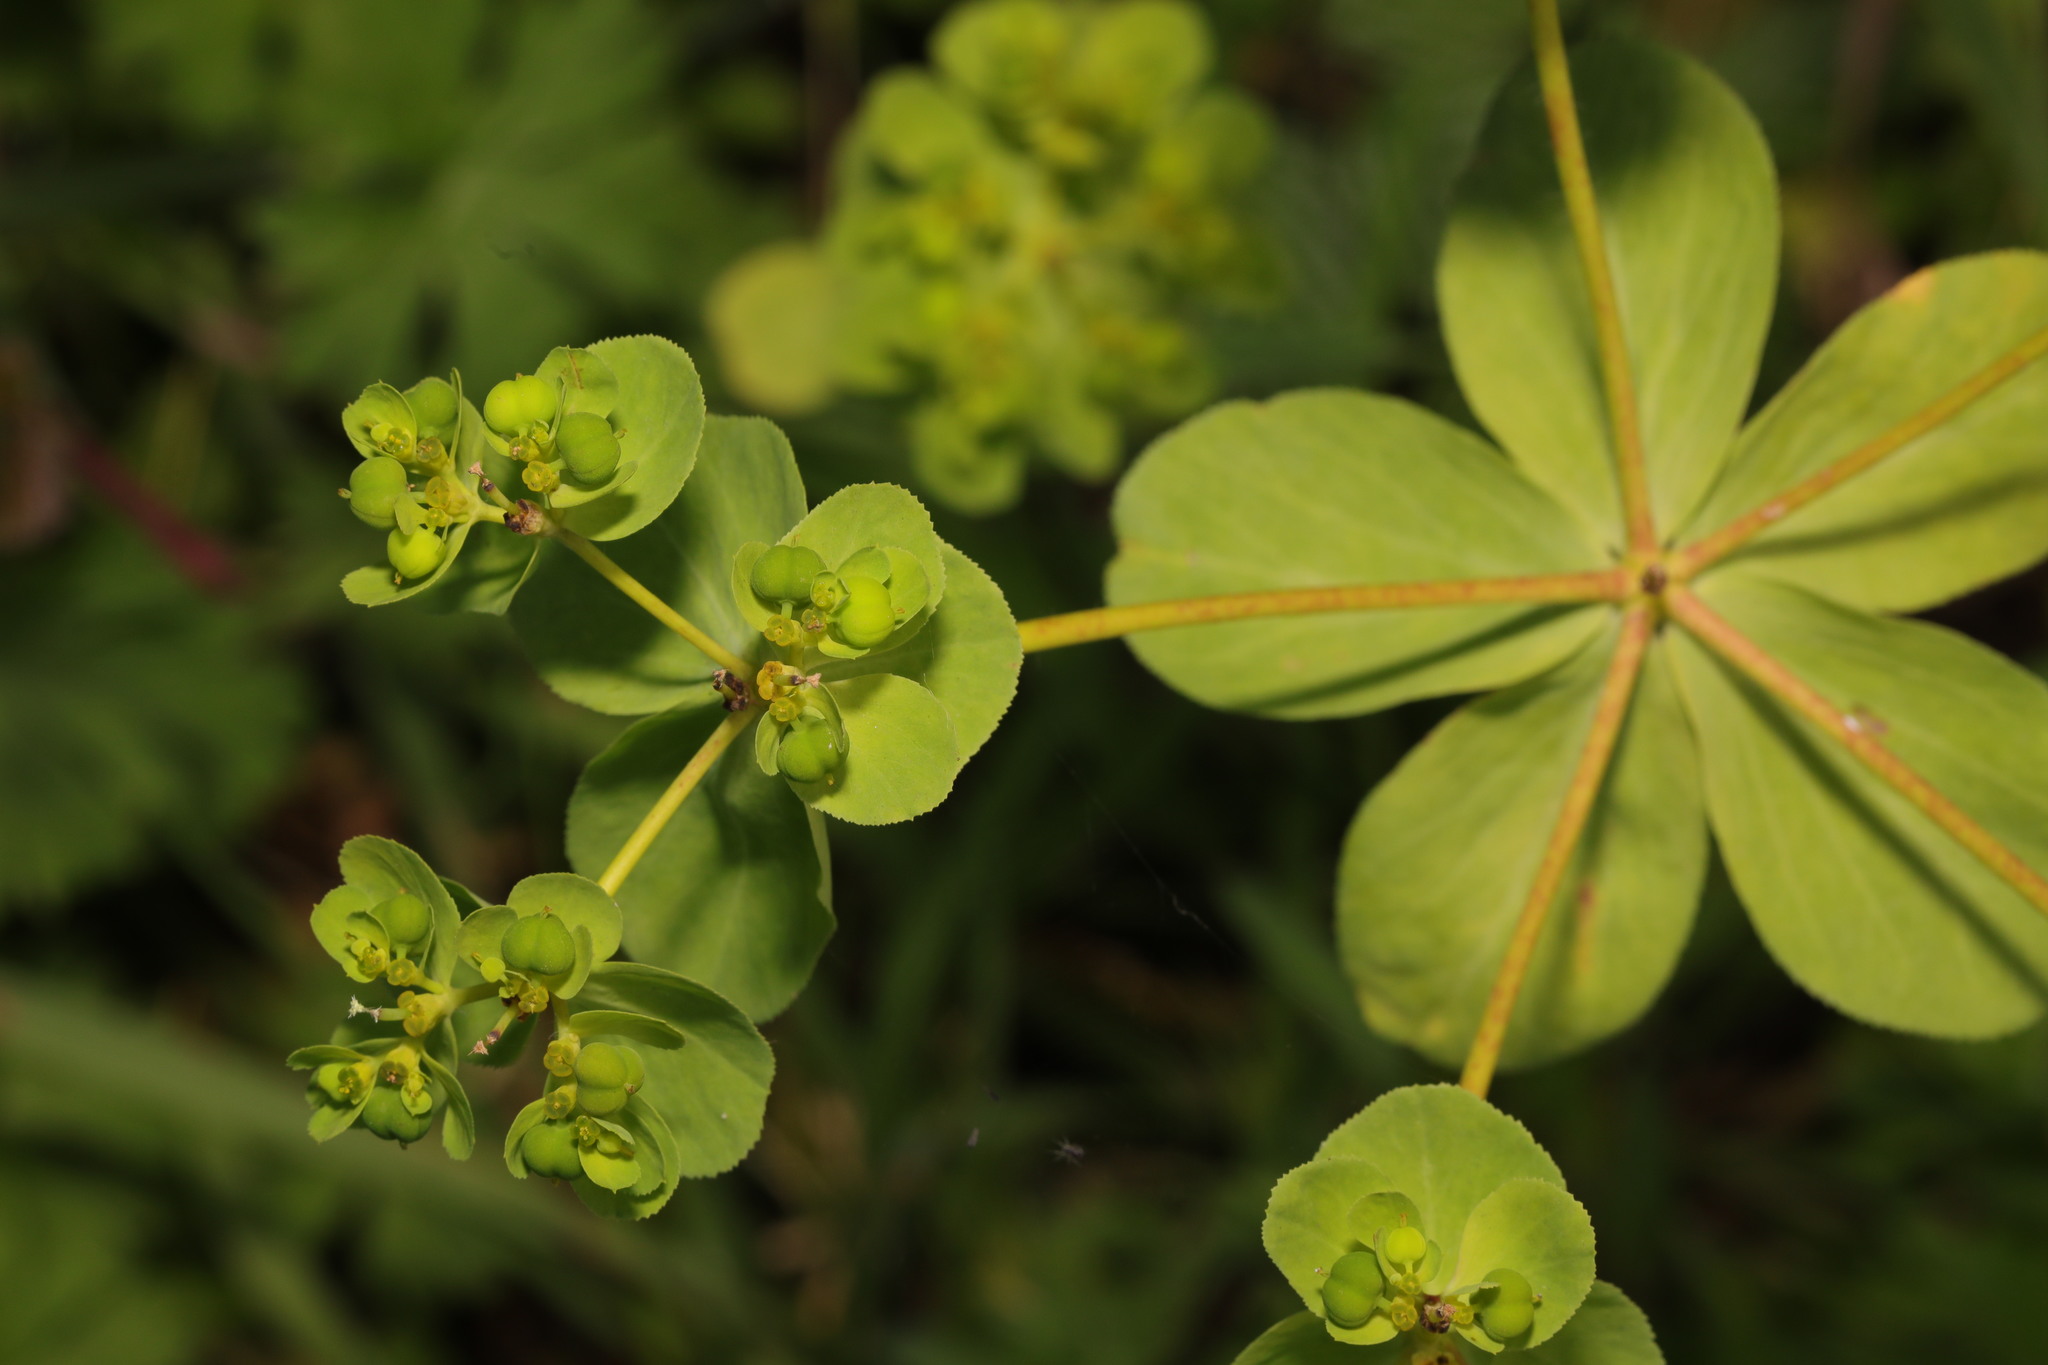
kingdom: Plantae
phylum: Tracheophyta
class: Magnoliopsida
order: Malpighiales
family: Euphorbiaceae
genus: Euphorbia
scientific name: Euphorbia helioscopia
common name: Sun spurge
